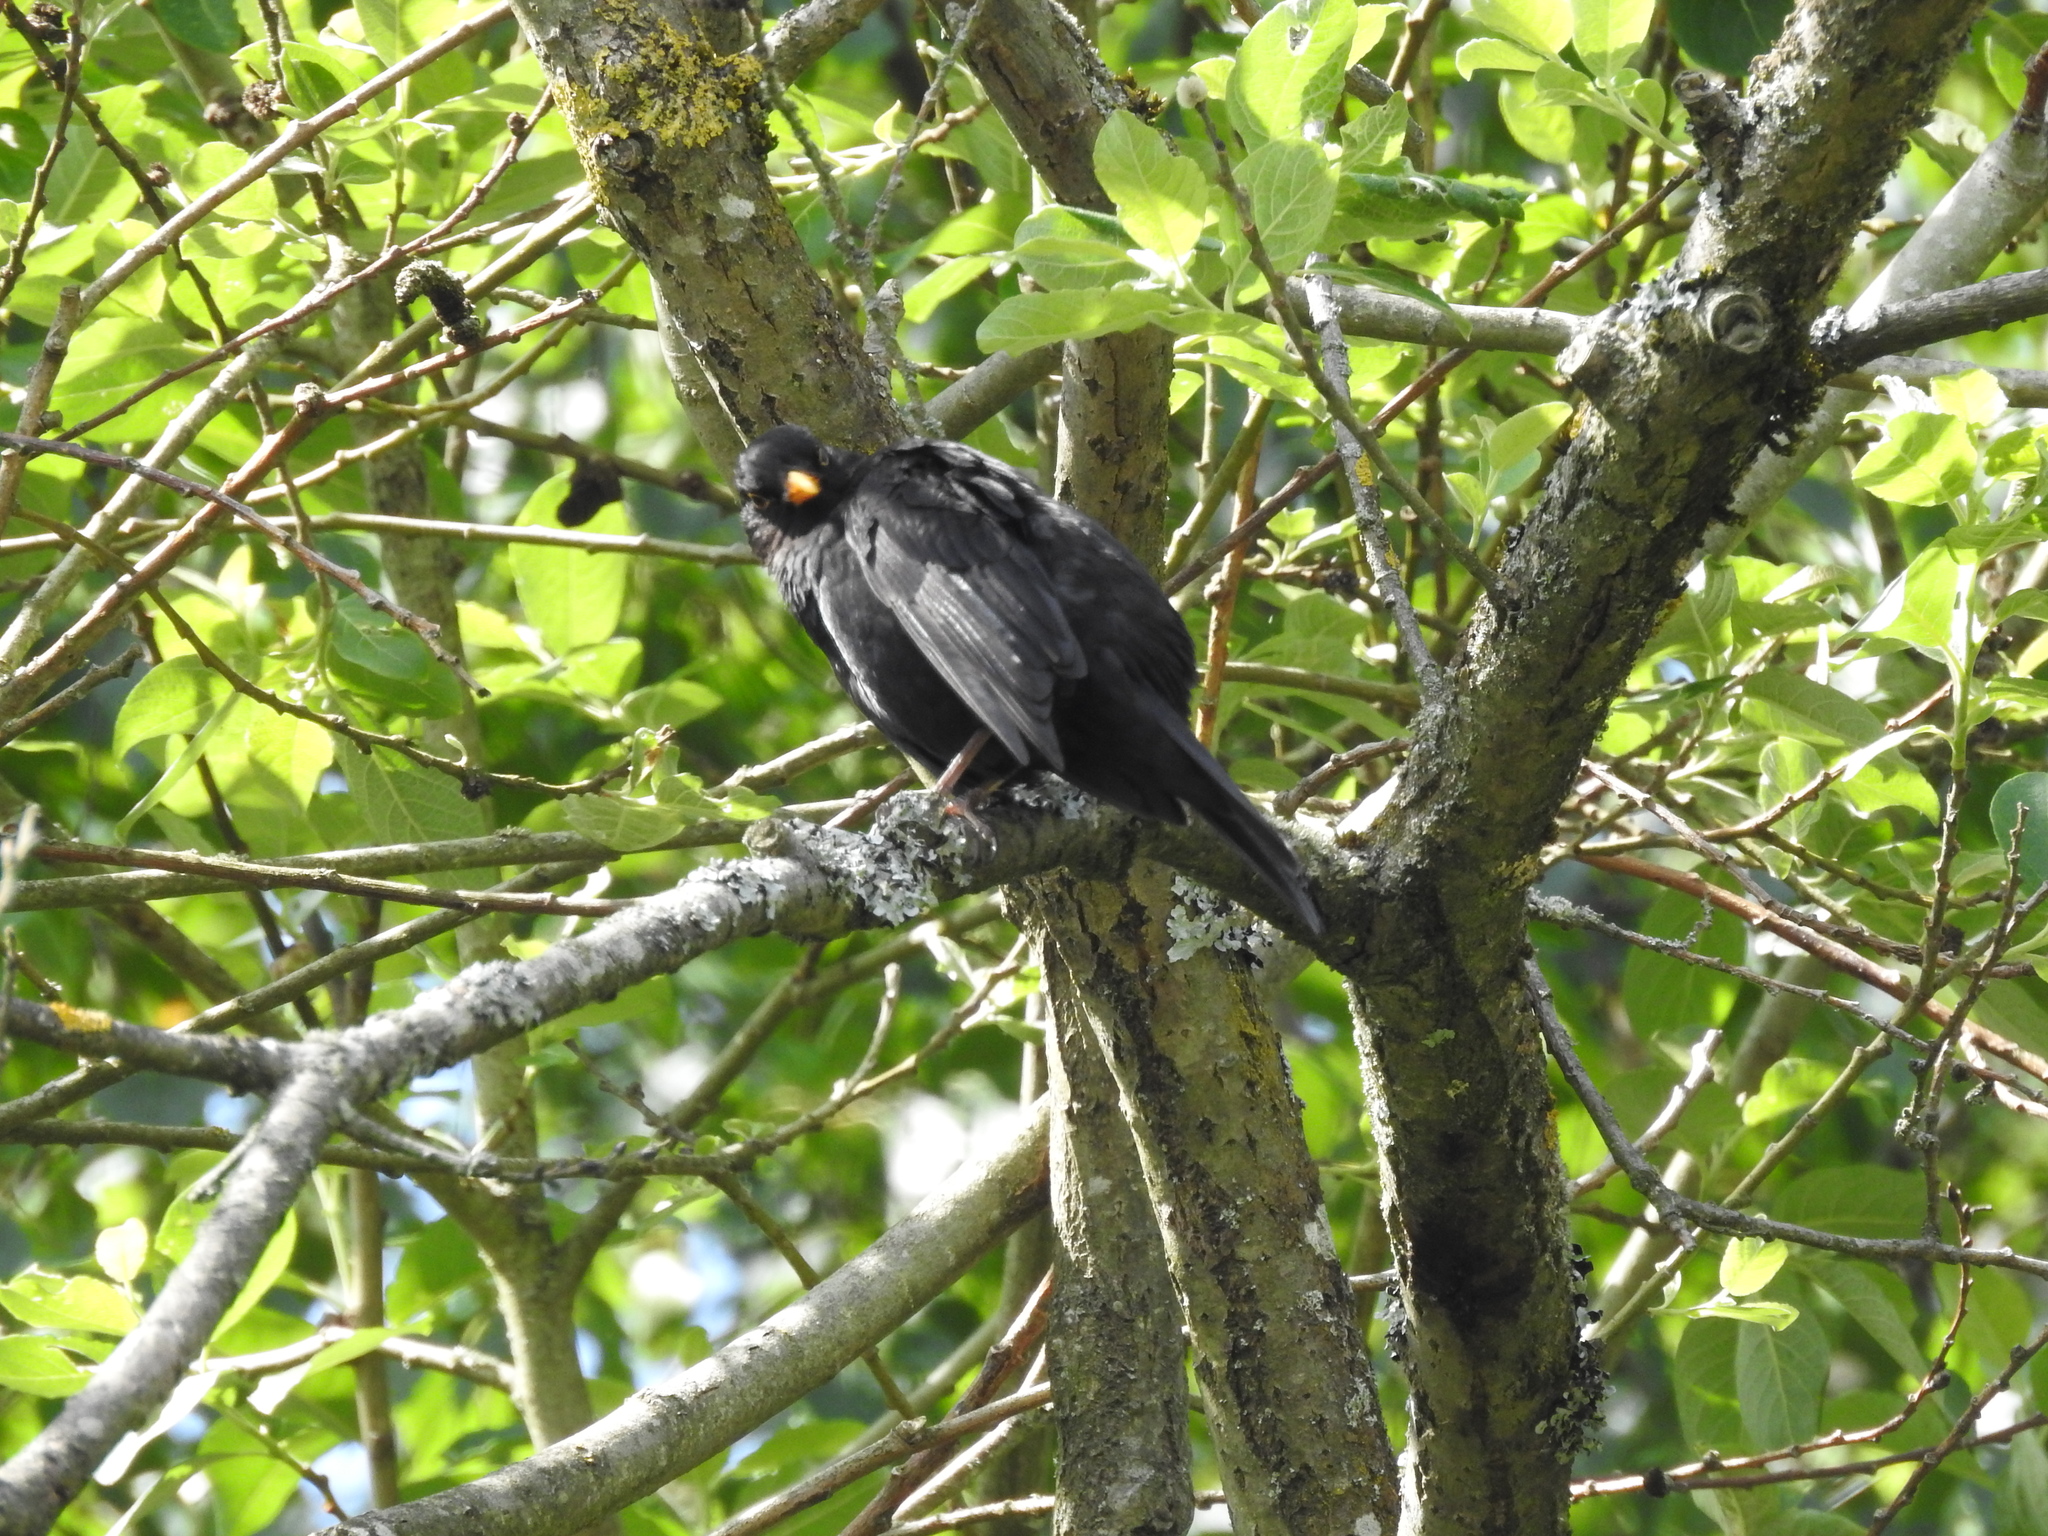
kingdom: Animalia
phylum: Chordata
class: Aves
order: Passeriformes
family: Turdidae
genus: Turdus
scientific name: Turdus merula
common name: Common blackbird
